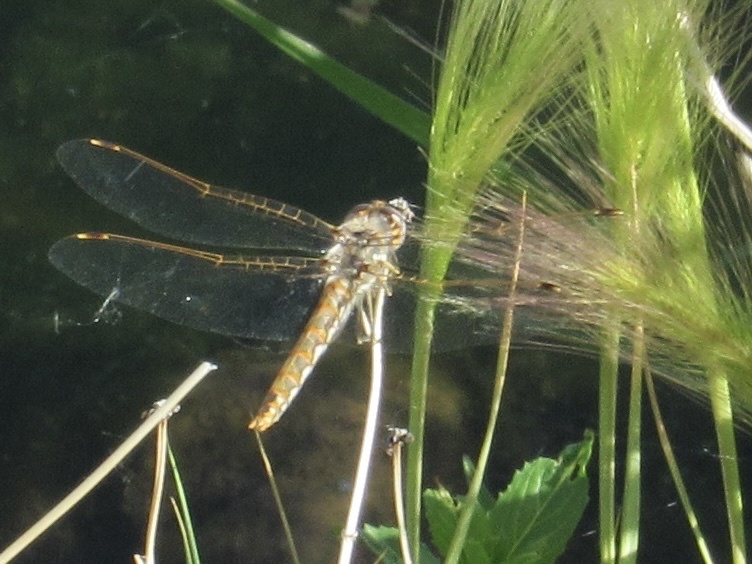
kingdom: Animalia
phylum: Arthropoda
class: Insecta
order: Odonata
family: Libellulidae
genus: Sympetrum
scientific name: Sympetrum corruptum
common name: Variegated meadowhawk
